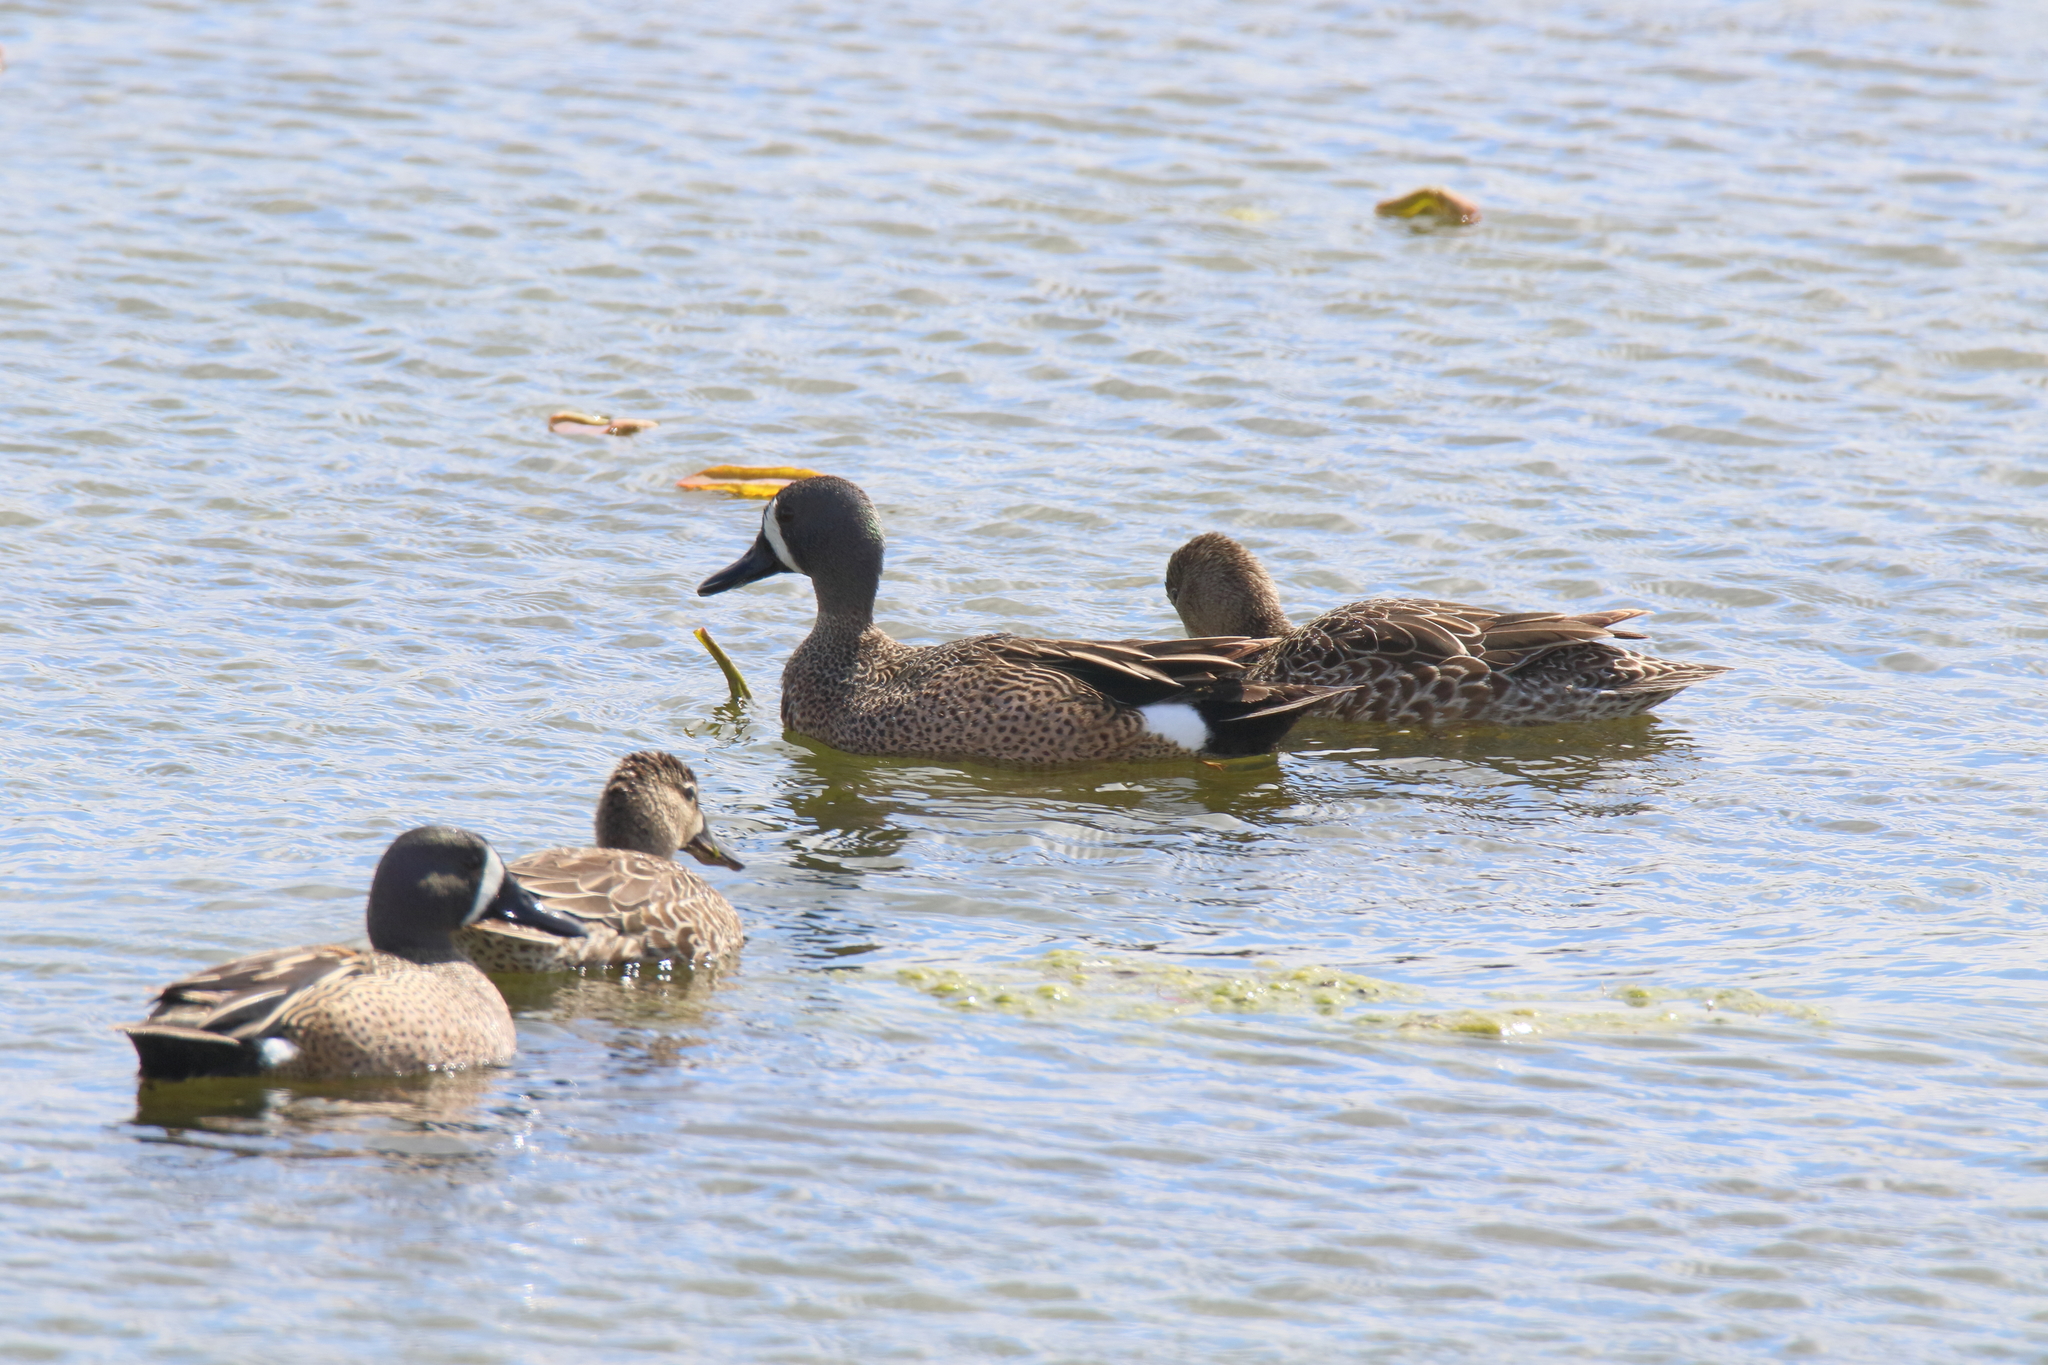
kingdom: Animalia
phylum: Chordata
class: Aves
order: Anseriformes
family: Anatidae
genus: Spatula
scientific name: Spatula discors
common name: Blue-winged teal
